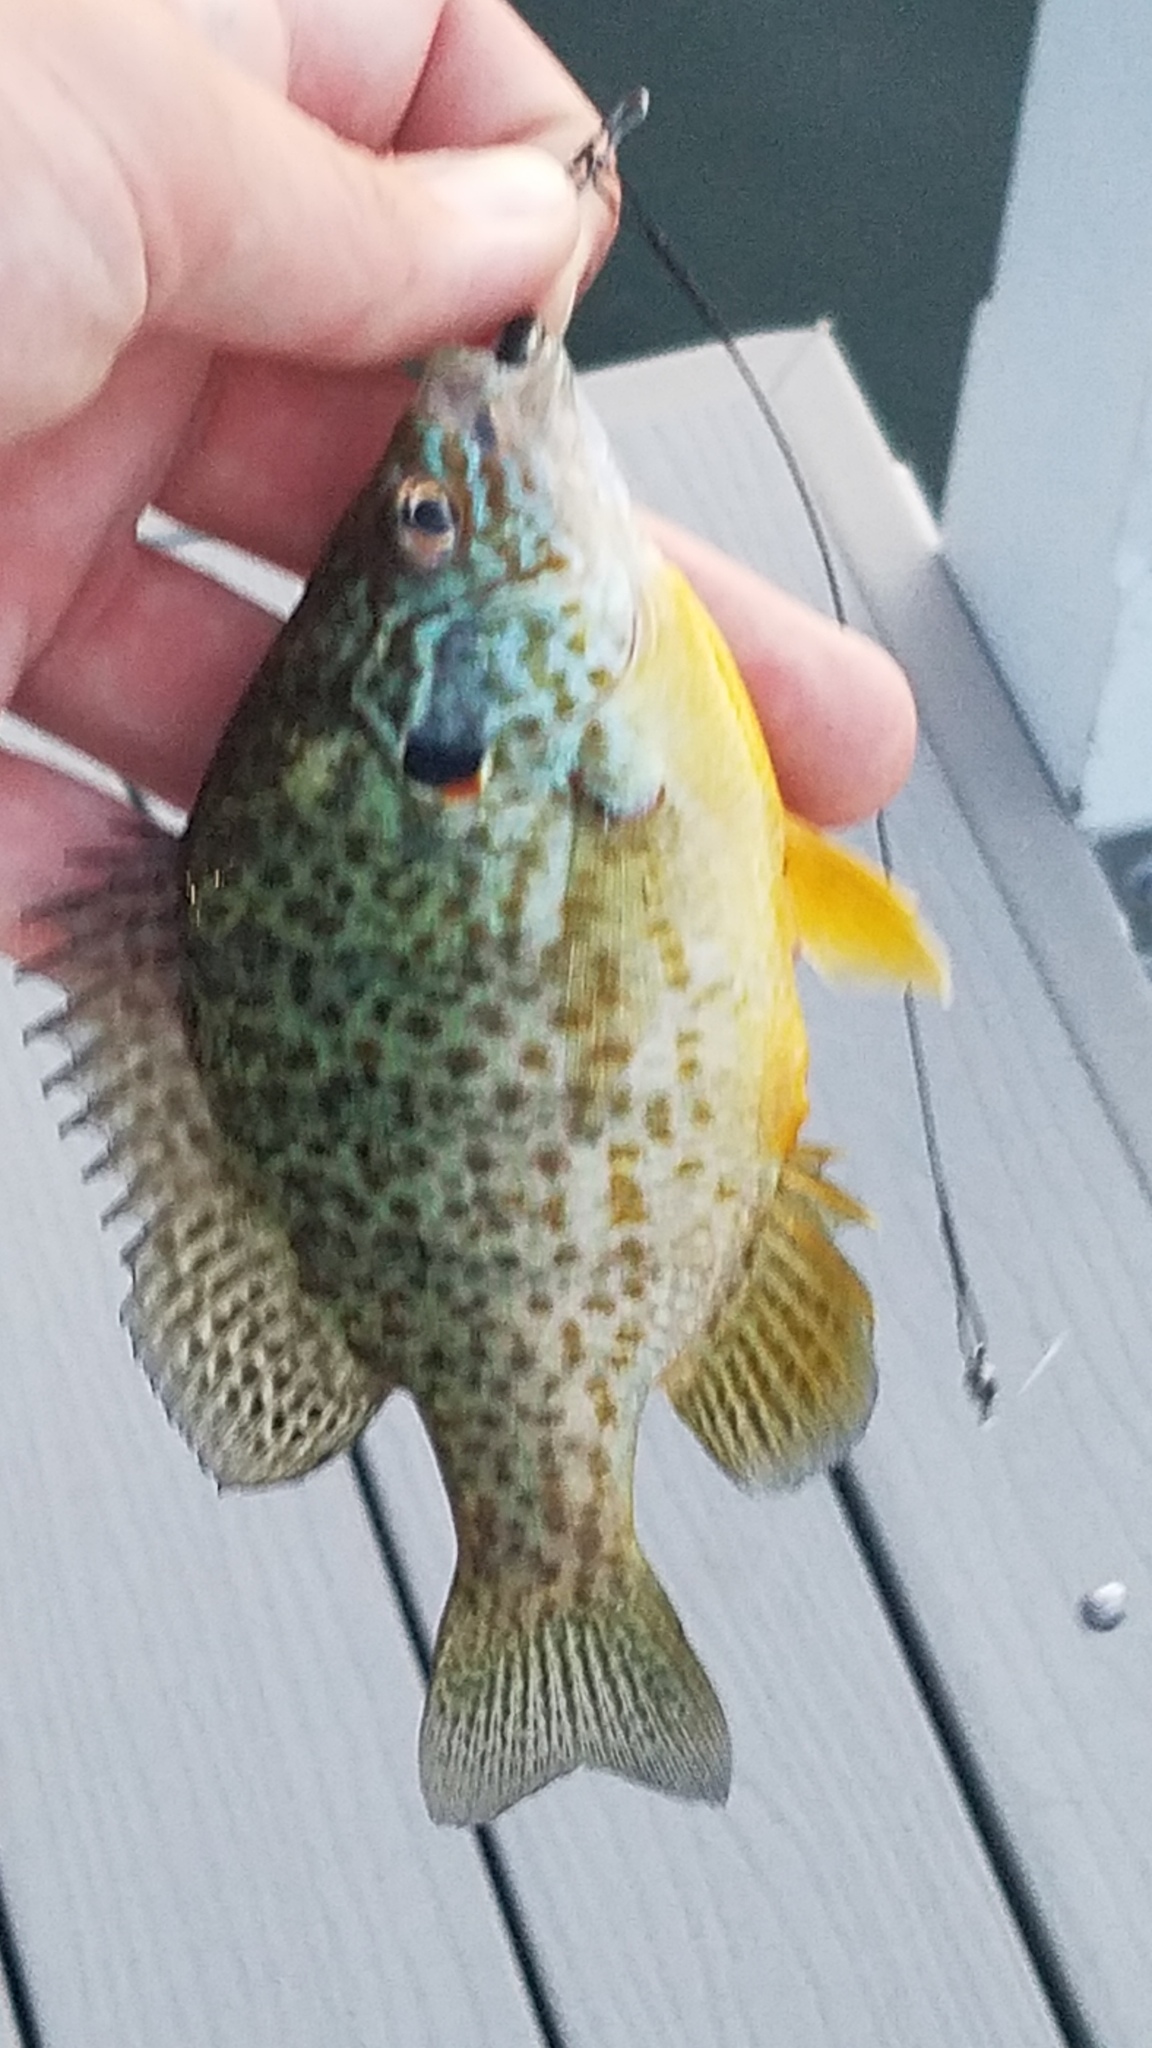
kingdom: Animalia
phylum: Chordata
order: Perciformes
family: Centrarchidae
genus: Lepomis
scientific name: Lepomis gibbosus
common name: Pumpkinseed
